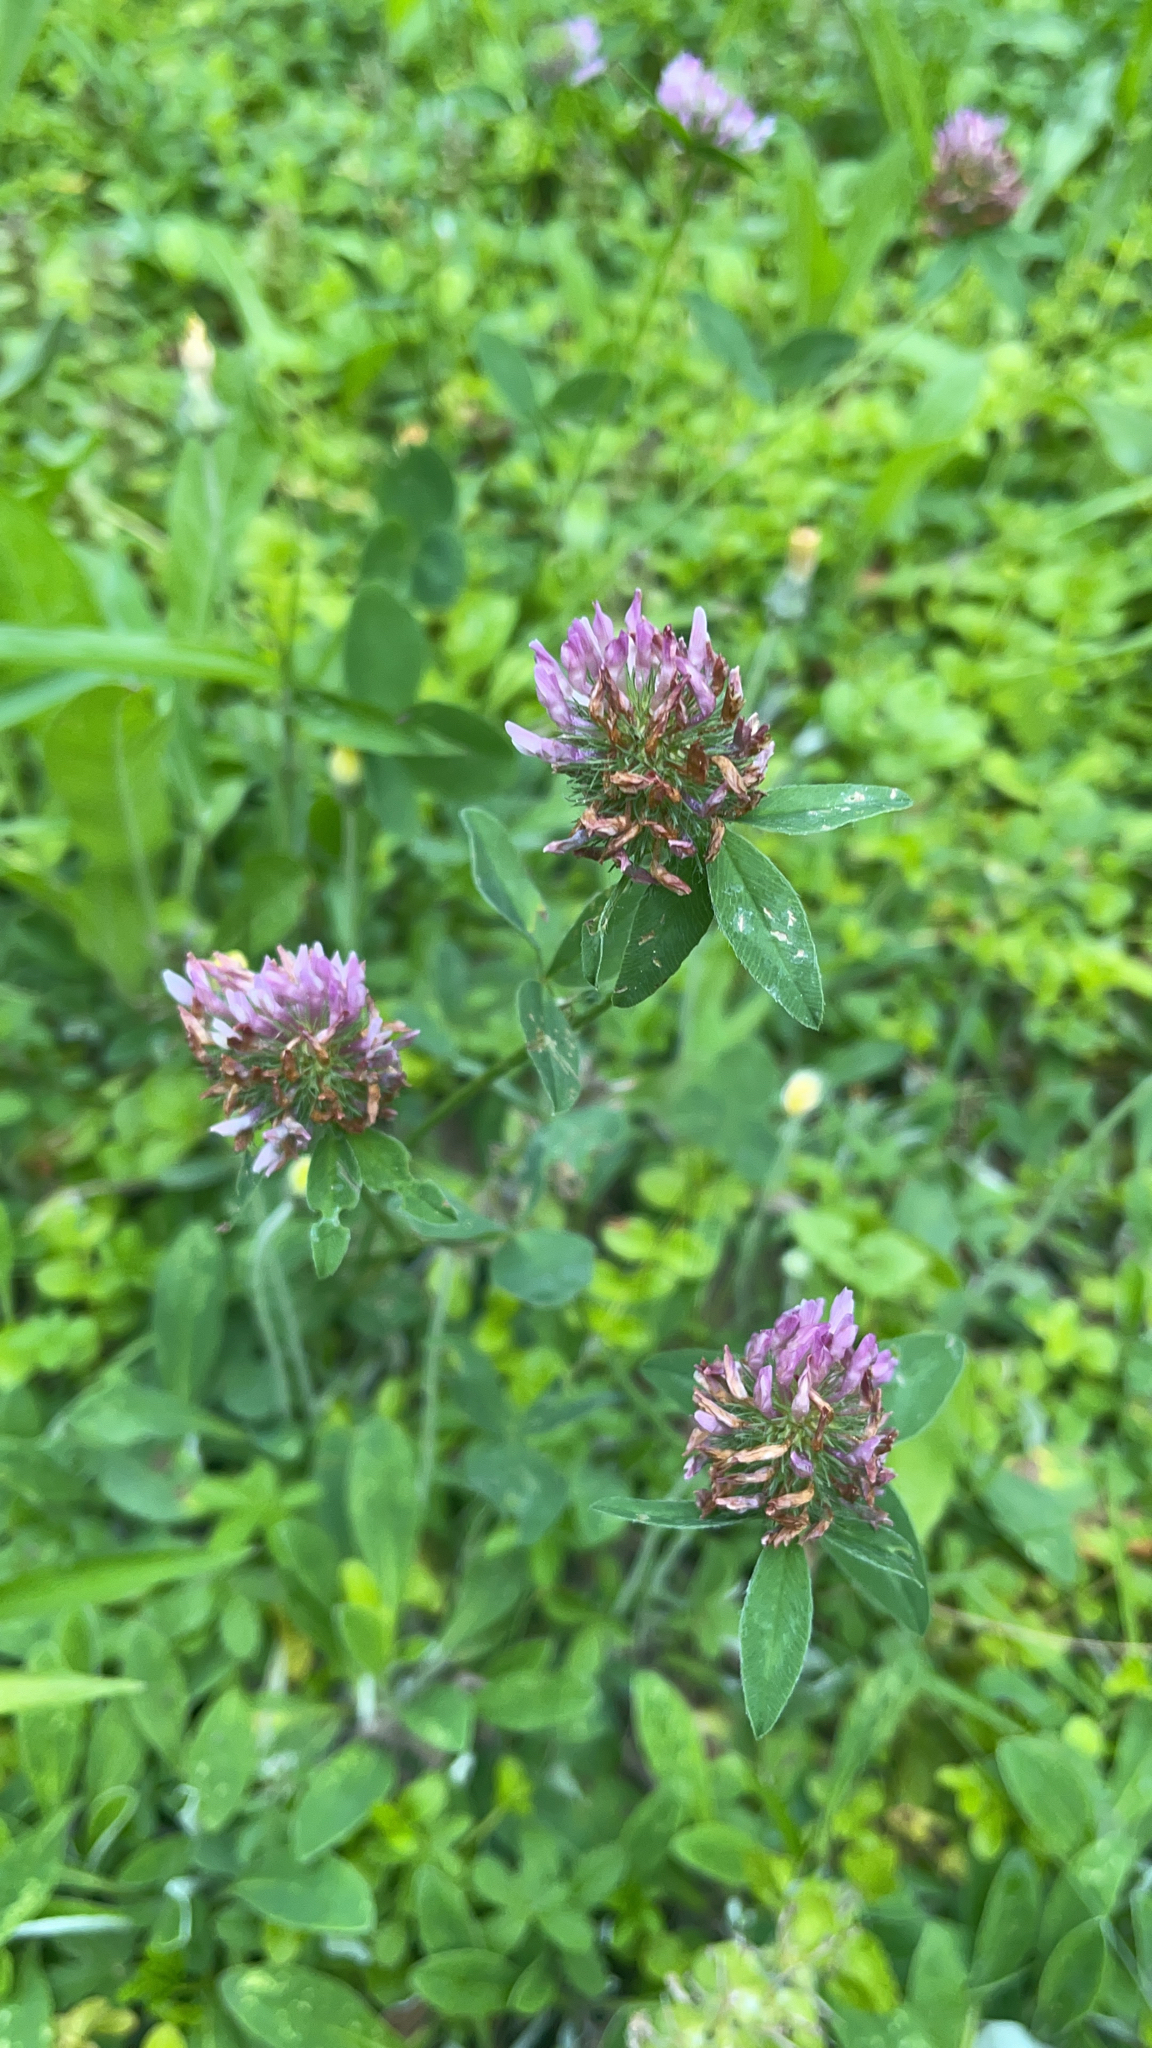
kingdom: Plantae
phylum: Tracheophyta
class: Magnoliopsida
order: Fabales
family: Fabaceae
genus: Trifolium
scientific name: Trifolium pratense
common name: Red clover
